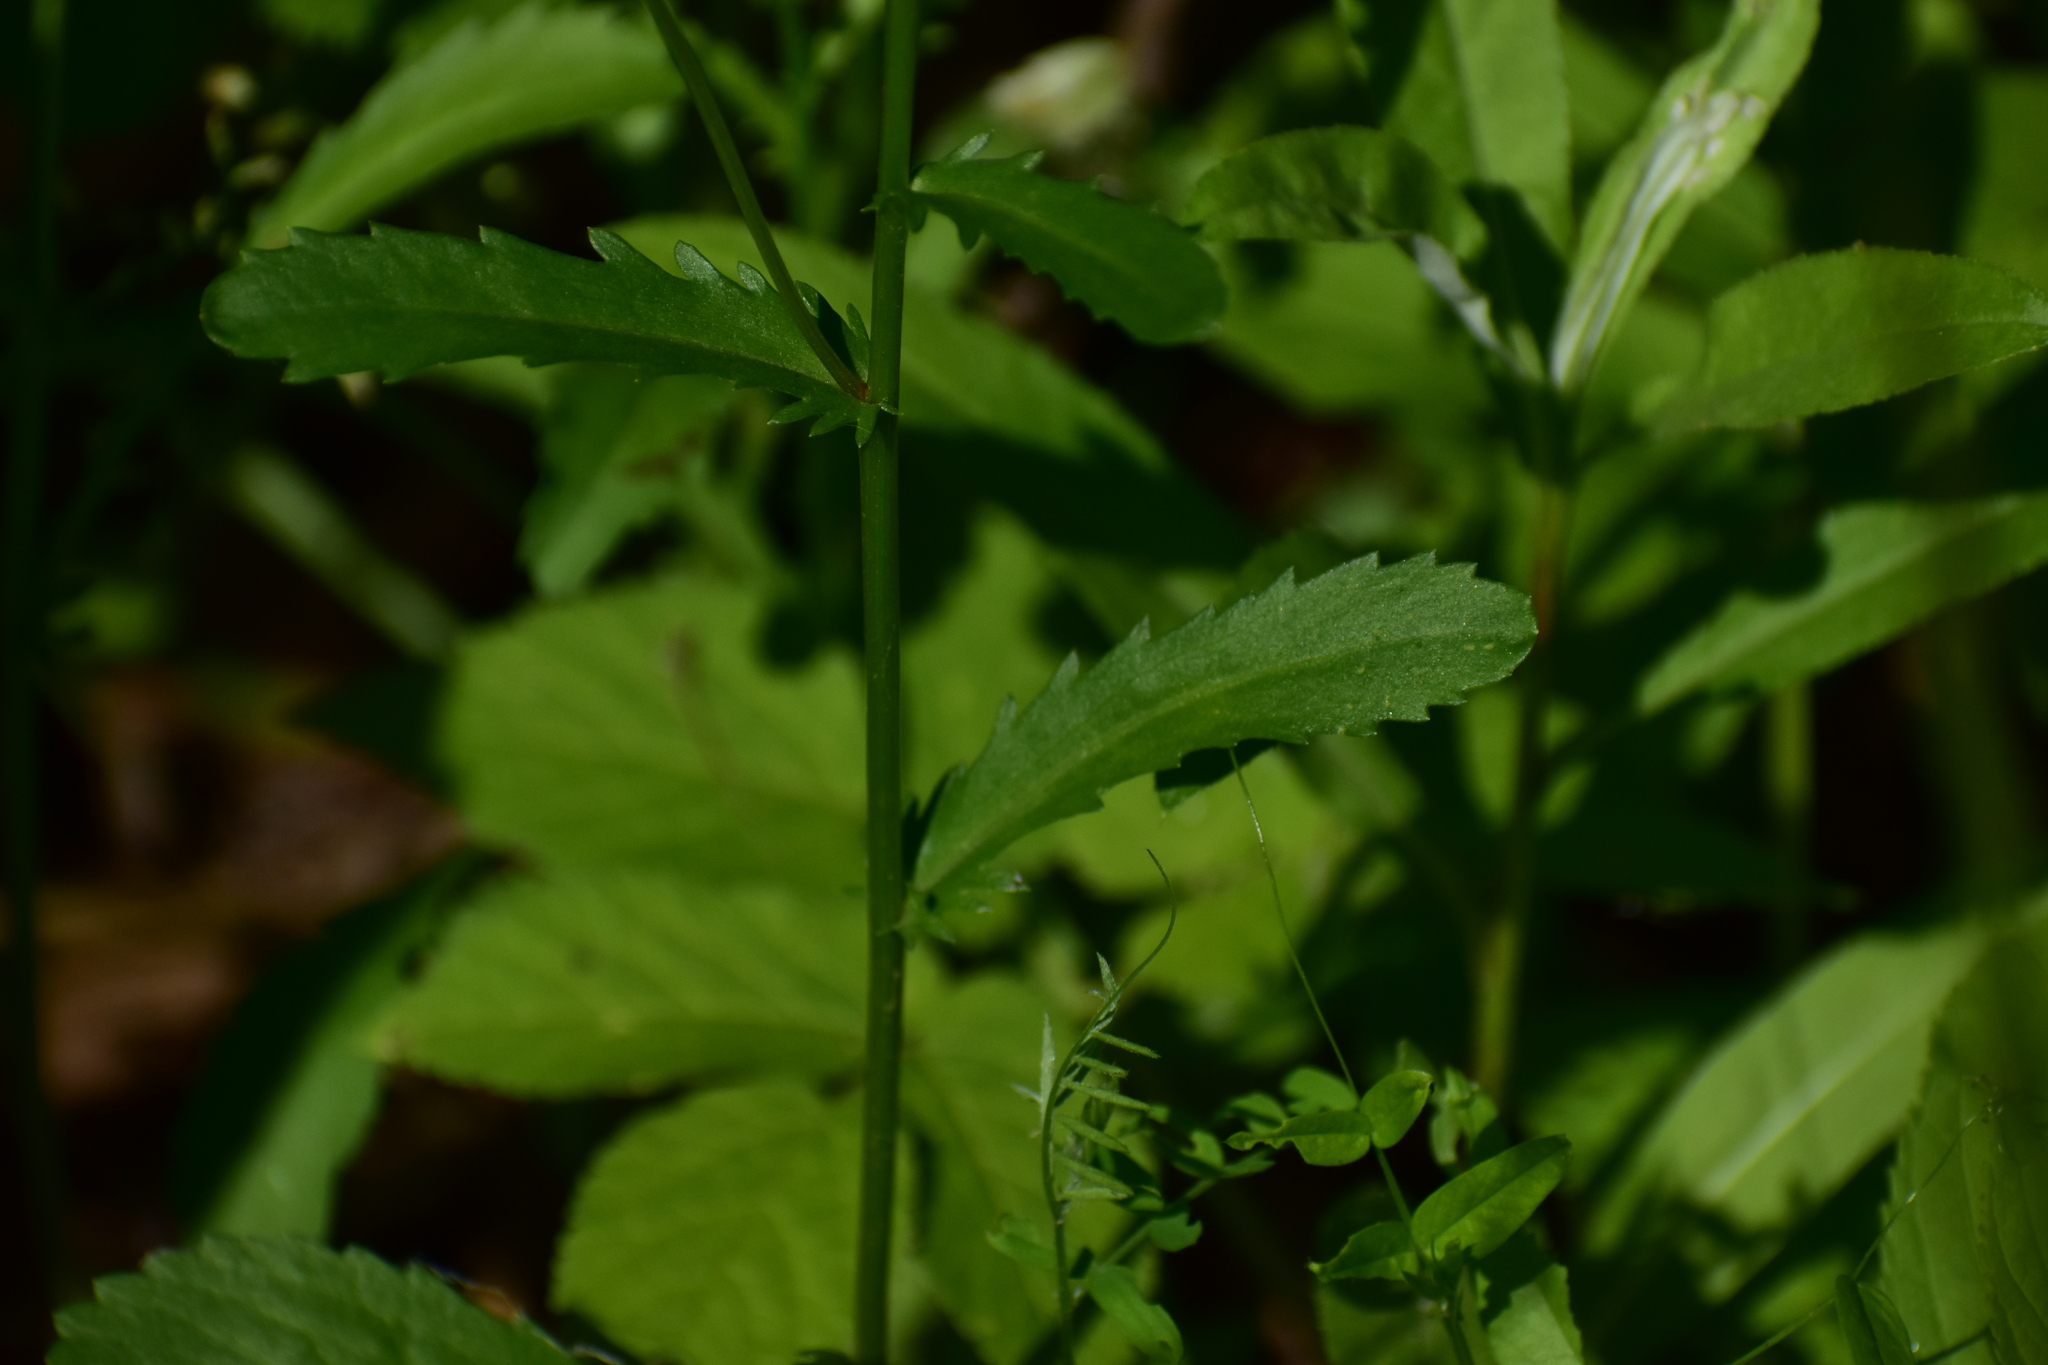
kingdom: Plantae
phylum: Tracheophyta
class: Magnoliopsida
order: Asterales
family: Asteraceae
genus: Leucanthemum
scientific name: Leucanthemum vulgare
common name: Oxeye daisy
